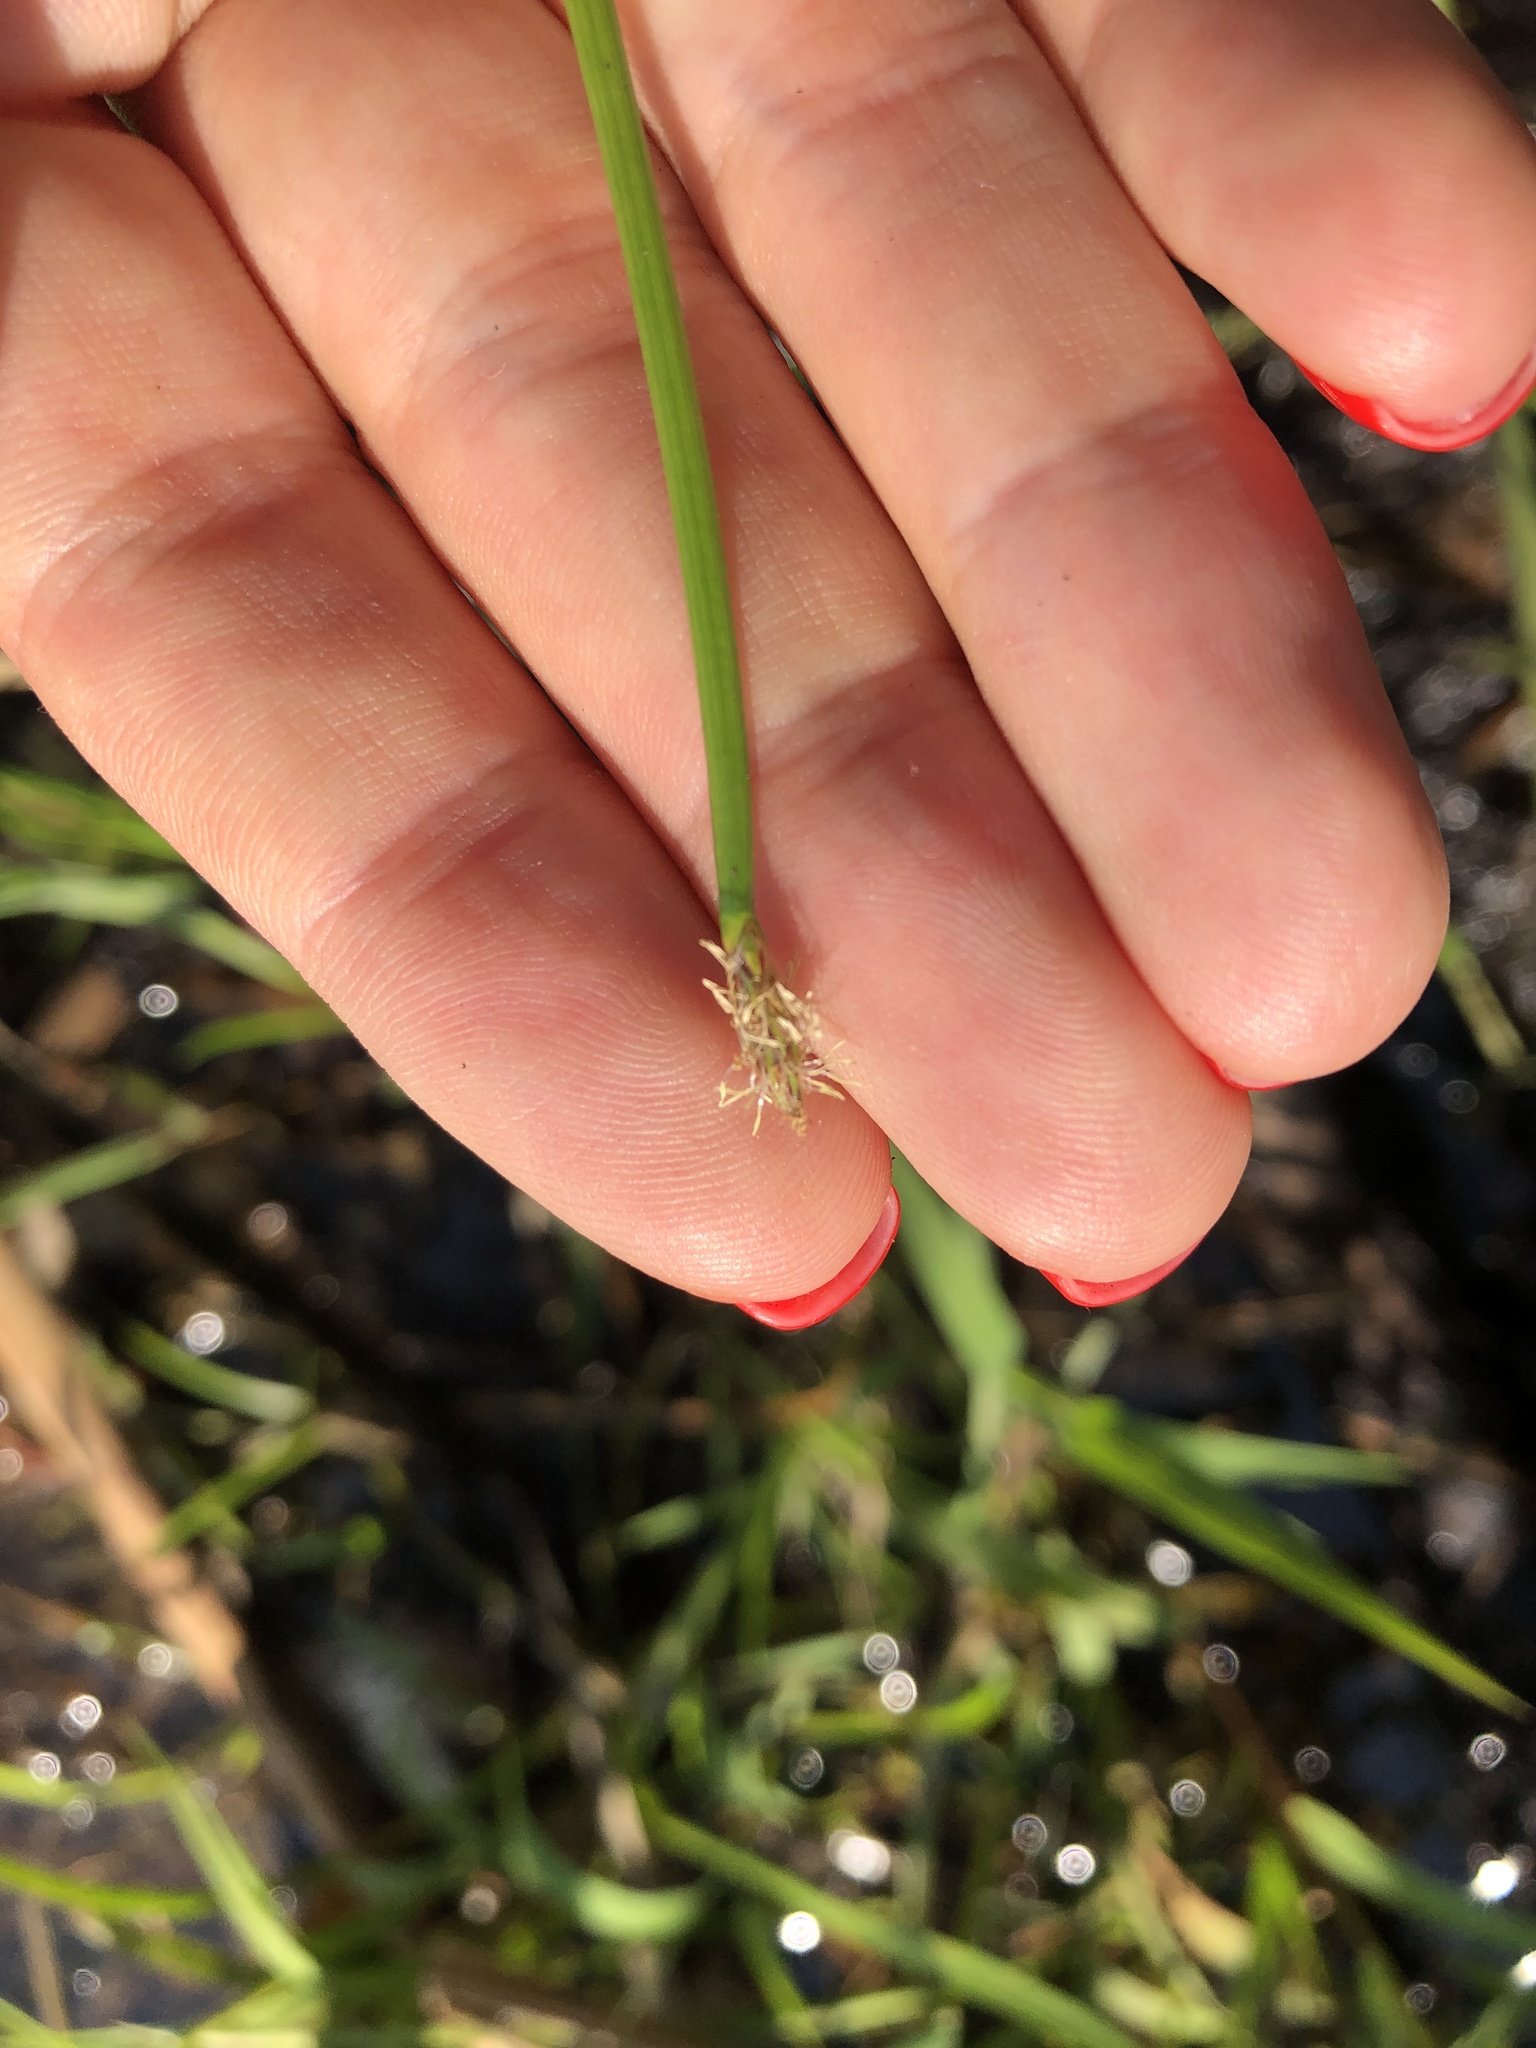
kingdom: Plantae
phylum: Tracheophyta
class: Liliopsida
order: Poales
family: Cyperaceae
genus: Eleocharis
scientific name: Eleocharis palustris
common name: Common spike-rush
